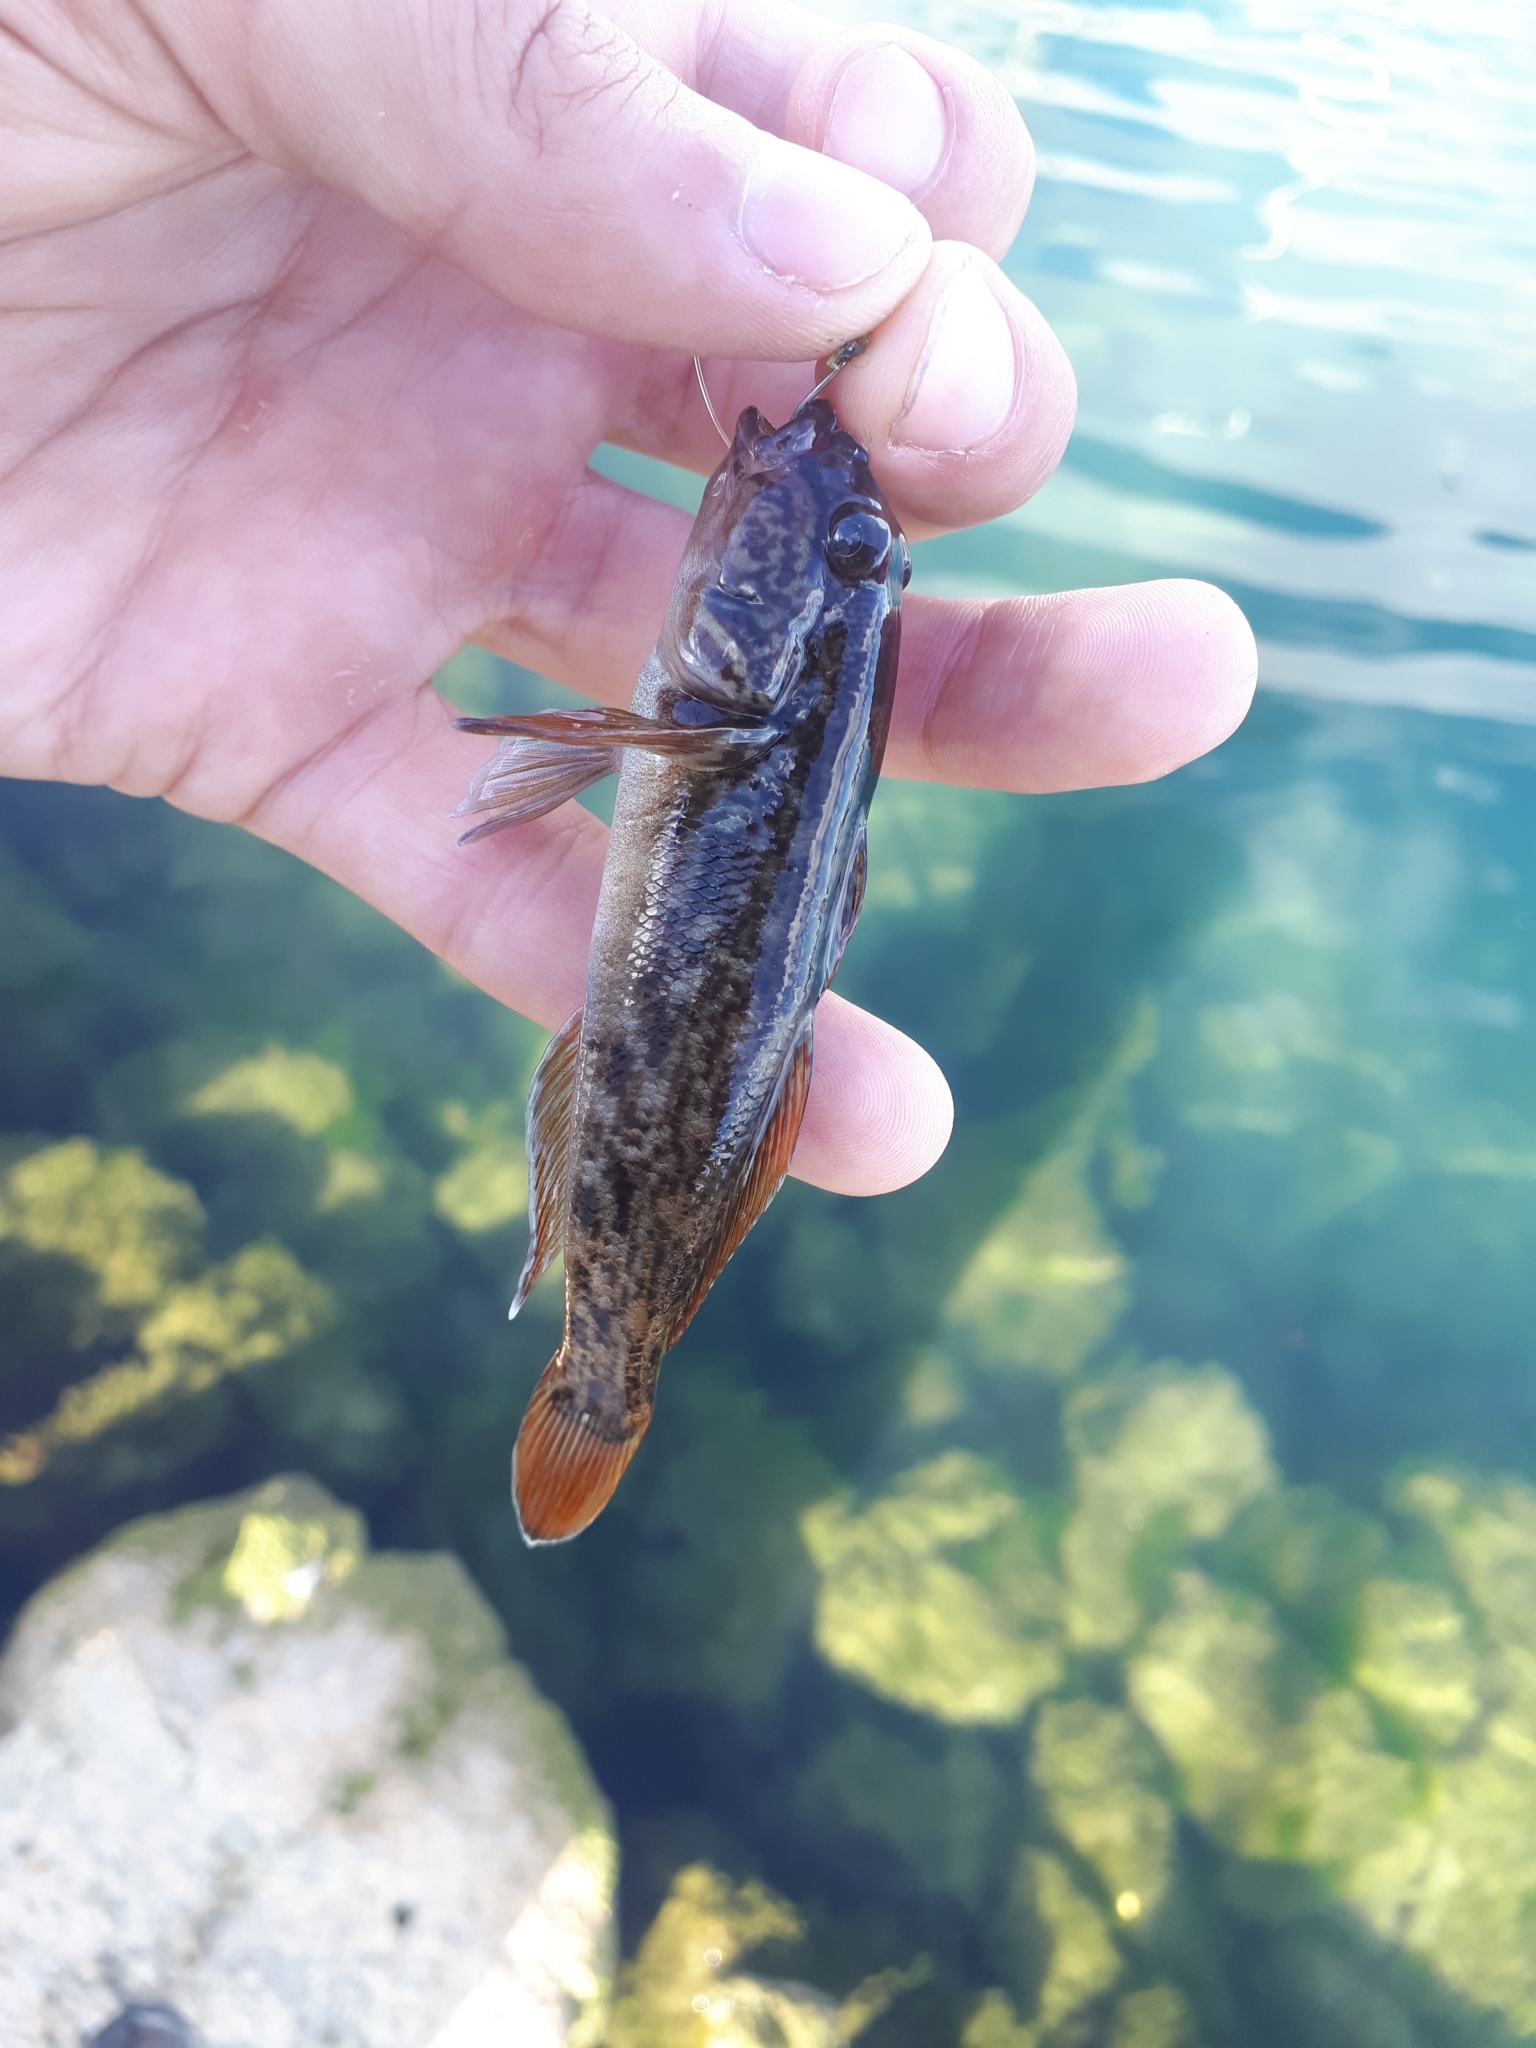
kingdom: Animalia
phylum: Chordata
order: Perciformes
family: Gobiidae
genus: Neogobius
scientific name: Neogobius melanostomus
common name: Round goby
